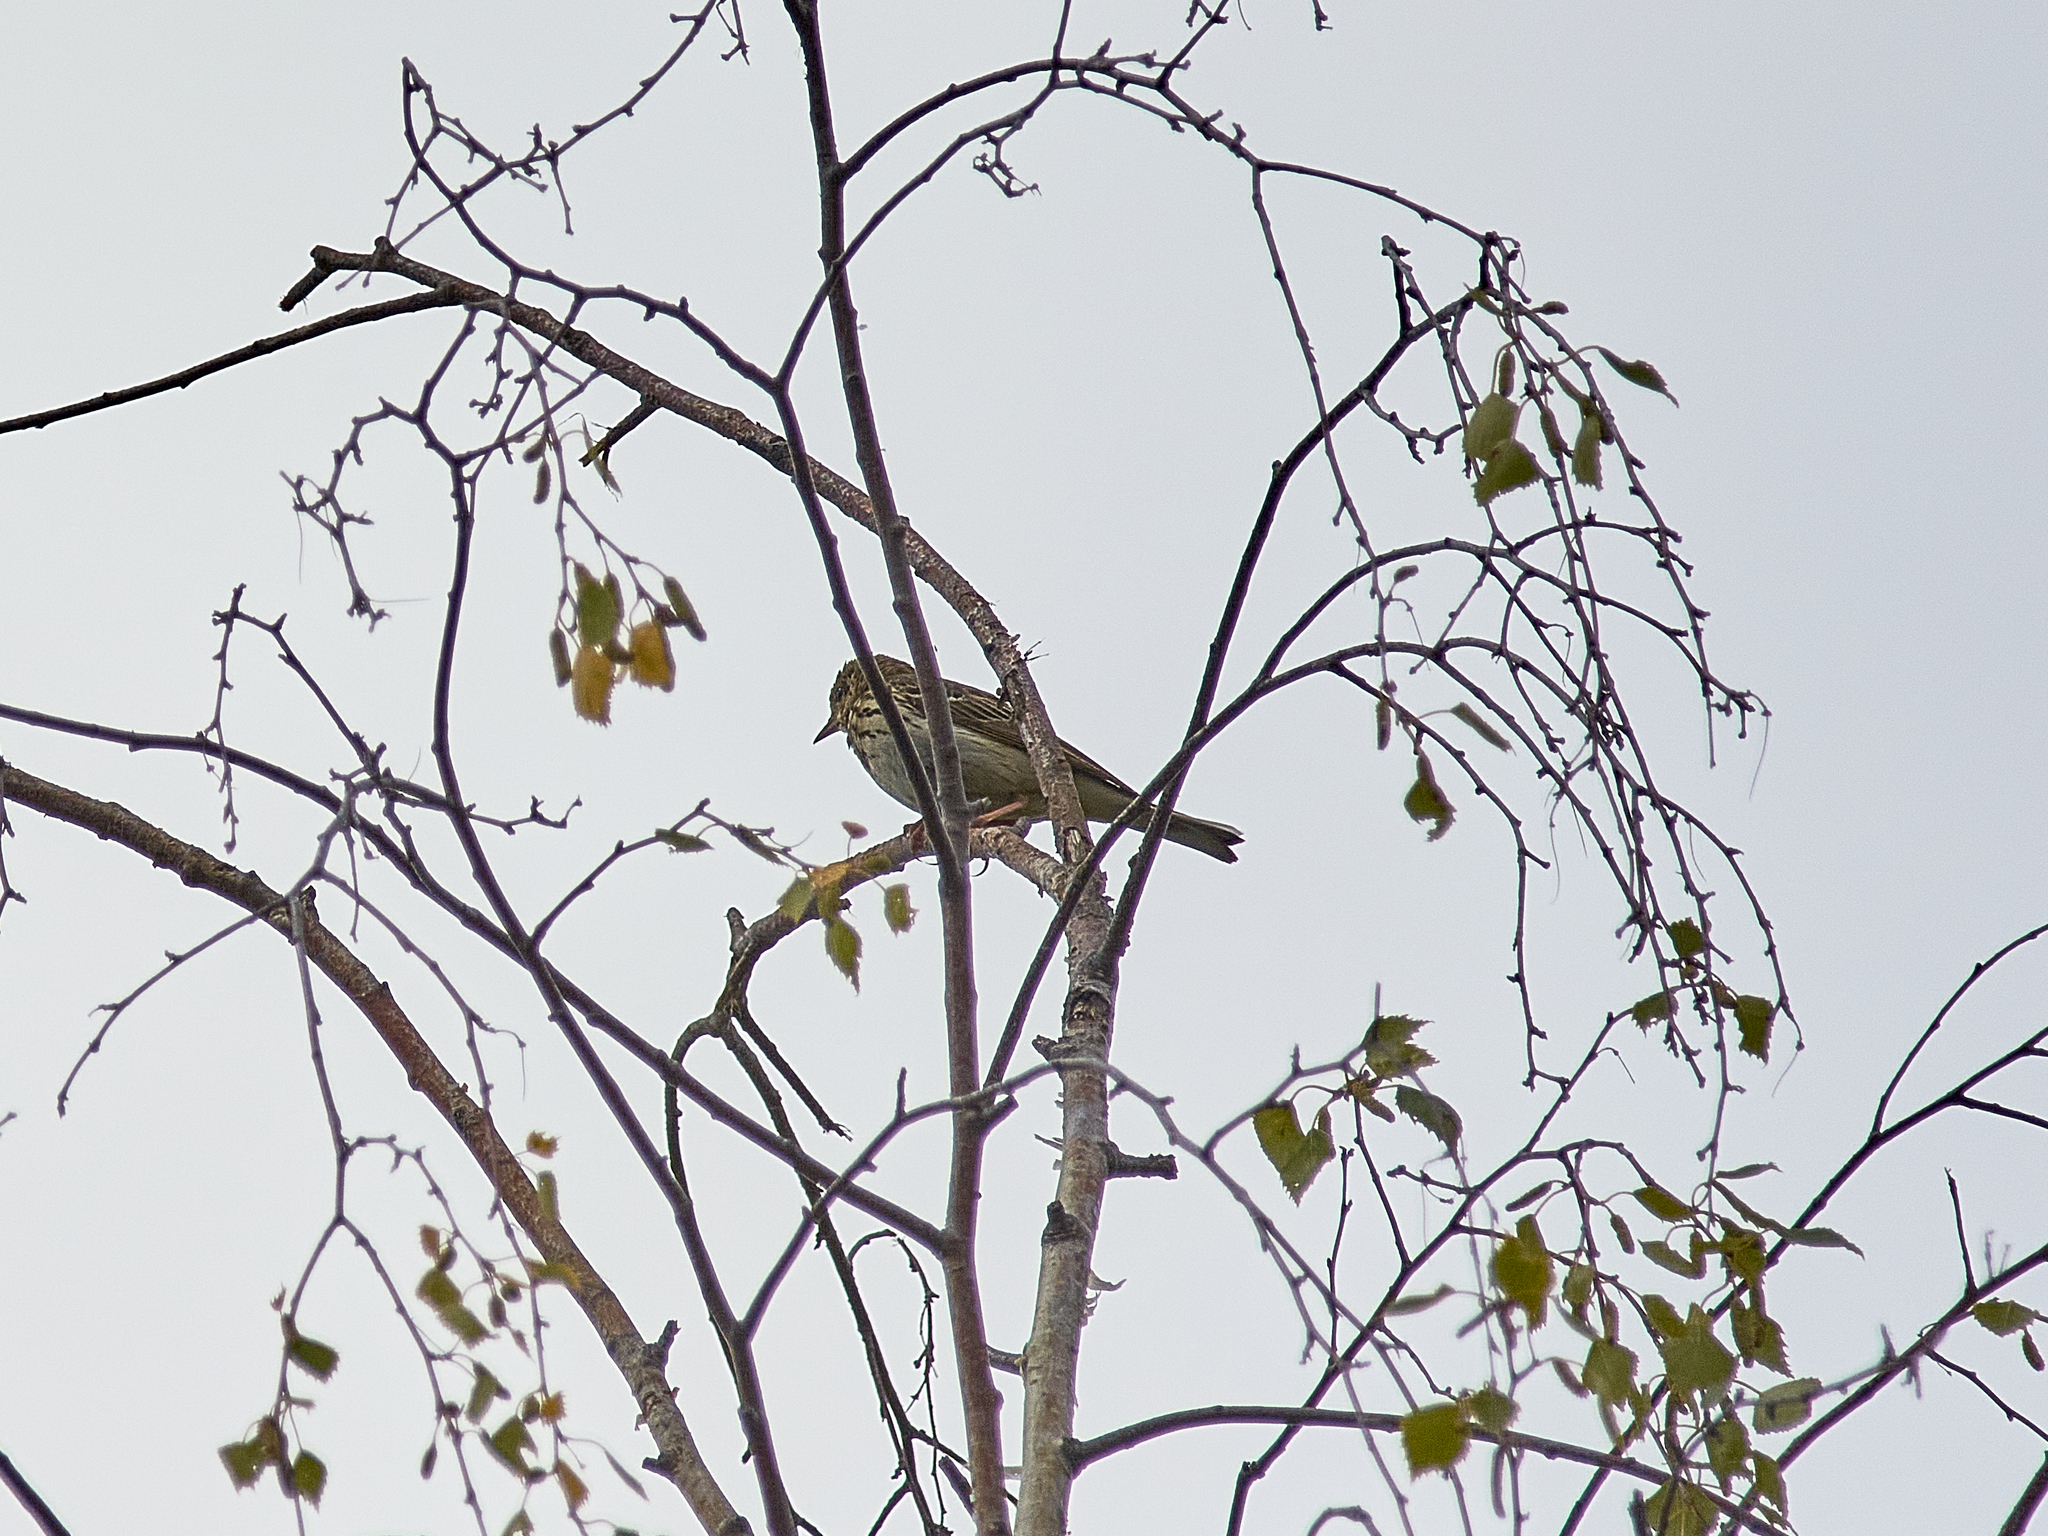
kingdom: Animalia
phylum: Chordata
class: Aves
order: Passeriformes
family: Motacillidae
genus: Anthus
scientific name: Anthus trivialis
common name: Tree pipit
